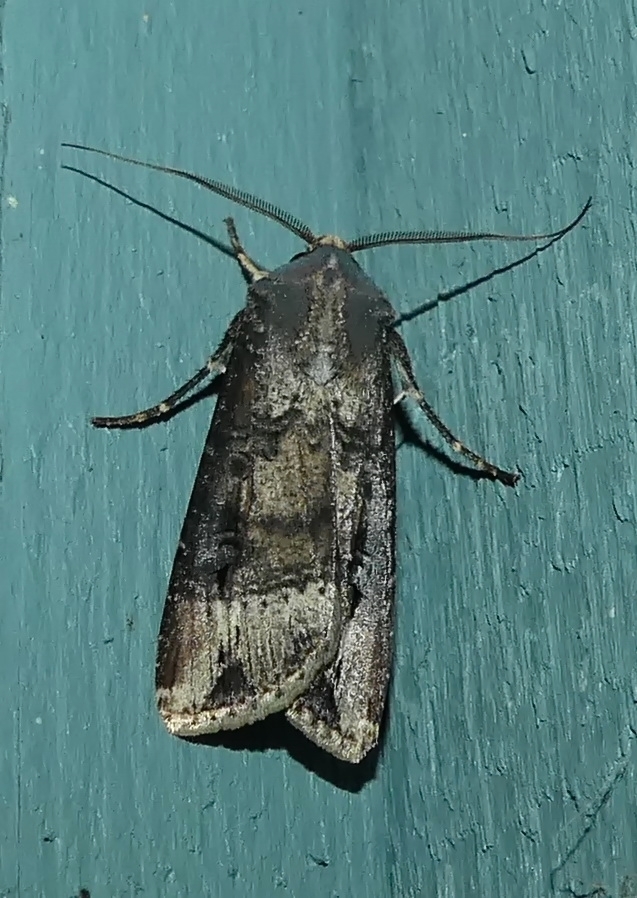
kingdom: Animalia
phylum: Arthropoda
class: Insecta
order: Lepidoptera
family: Noctuidae
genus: Agrotis
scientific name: Agrotis ipsilon
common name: Dark sword-grass
